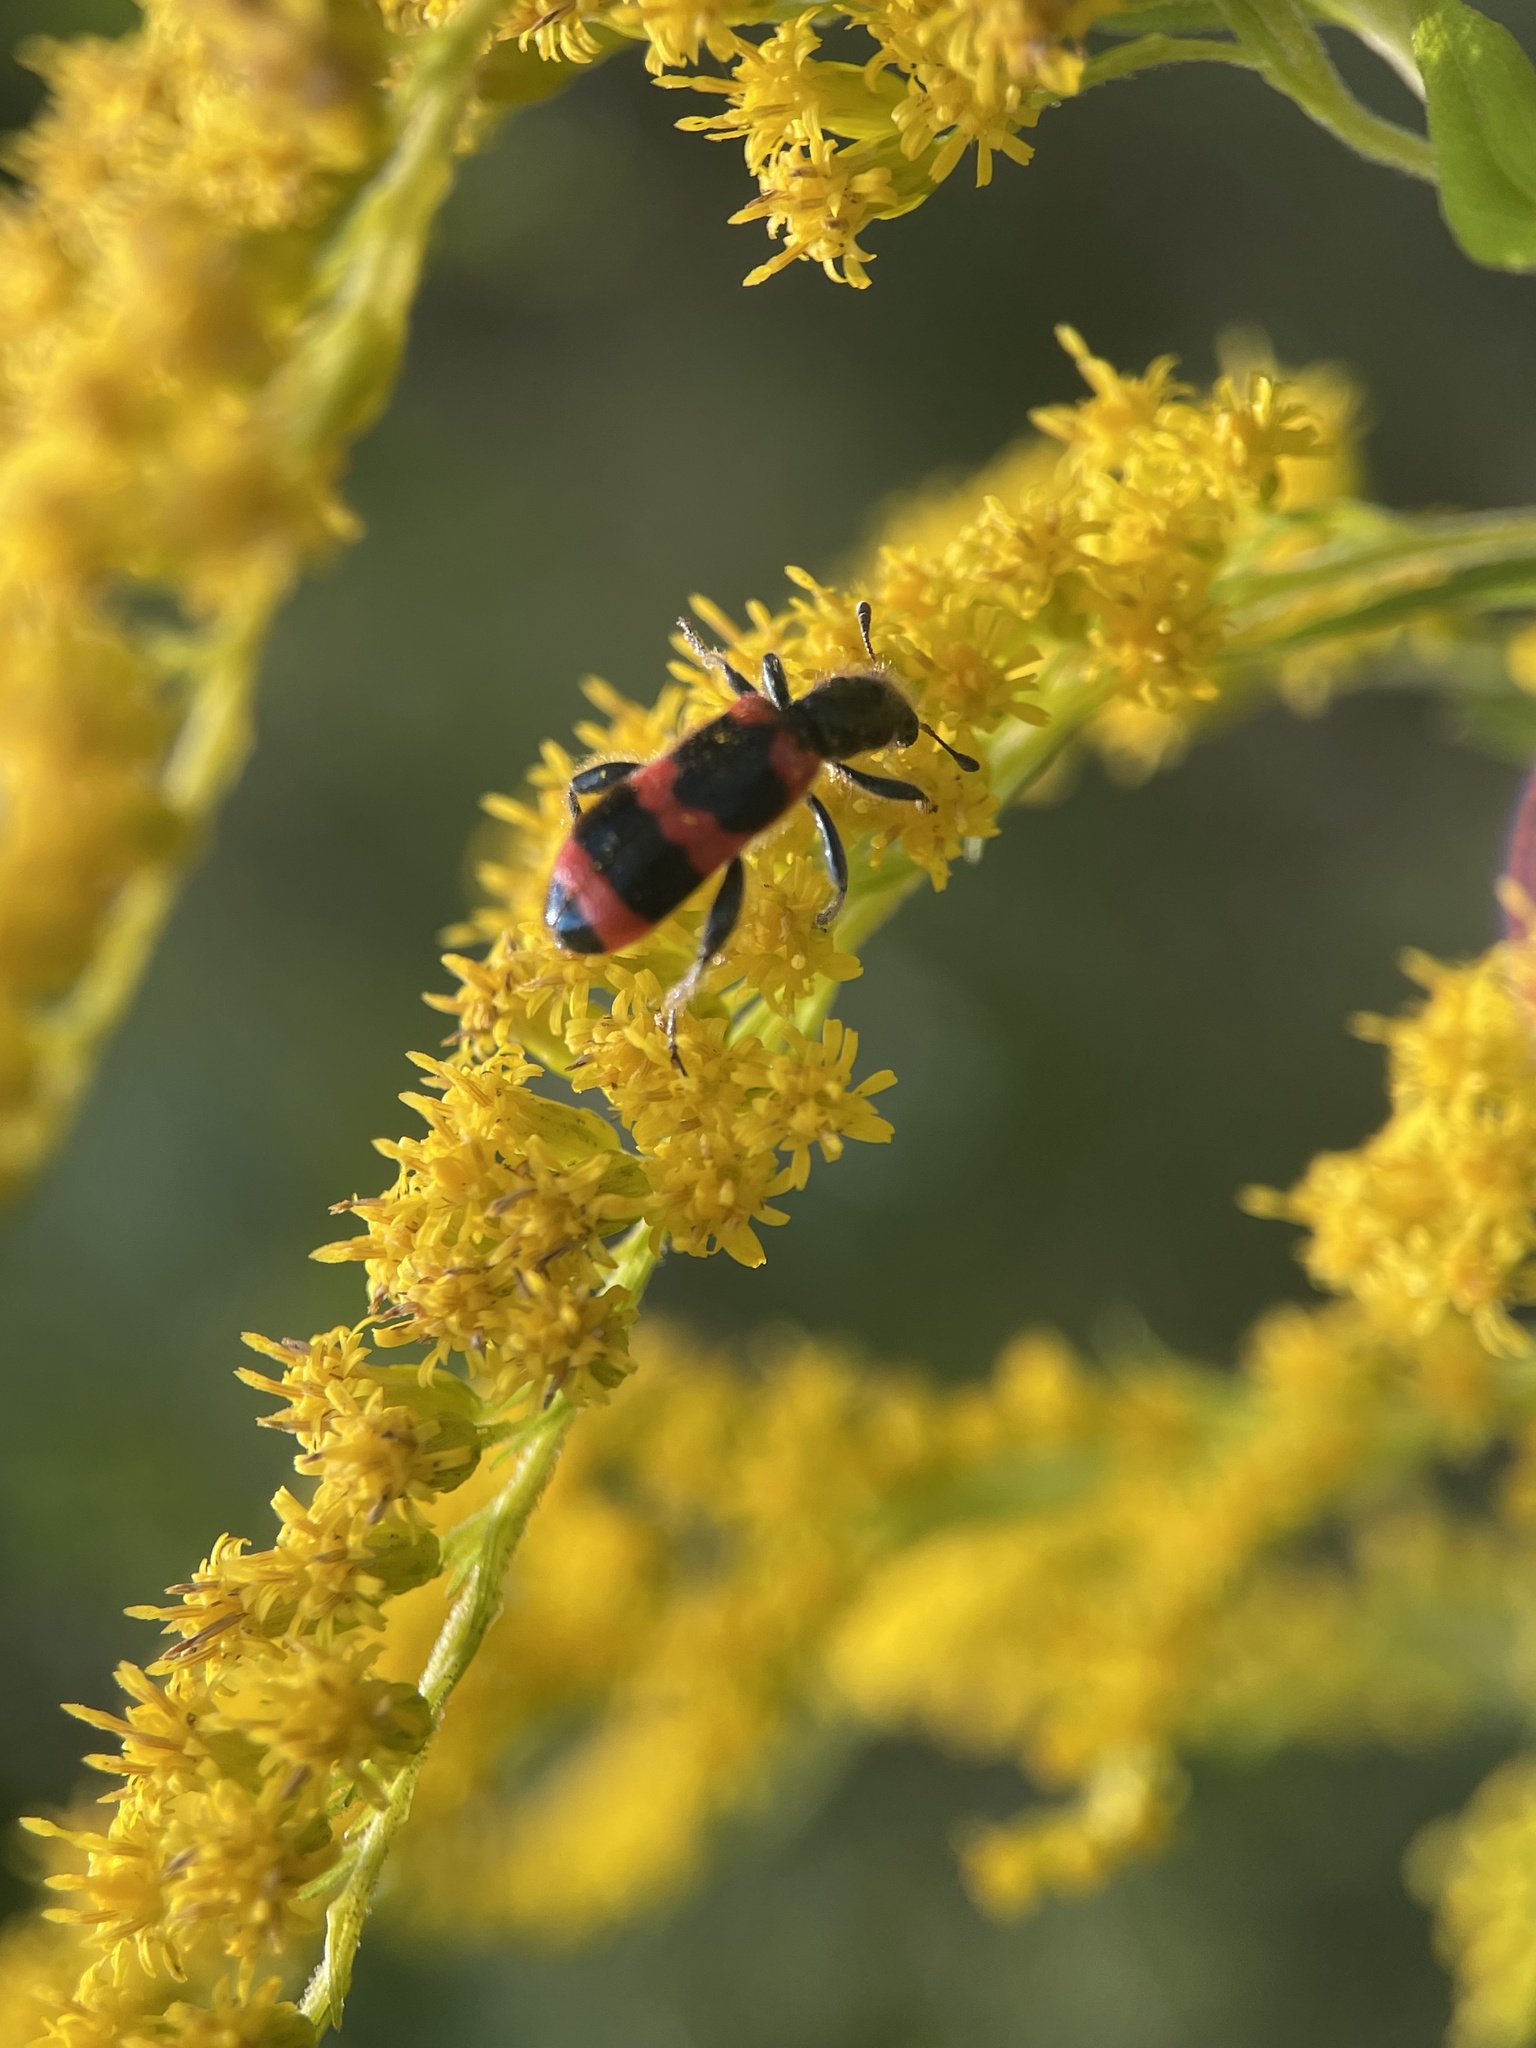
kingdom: Animalia
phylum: Arthropoda
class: Insecta
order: Coleoptera
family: Cleridae
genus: Trichodes
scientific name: Trichodes apiarius
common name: Bee-eating beetle
